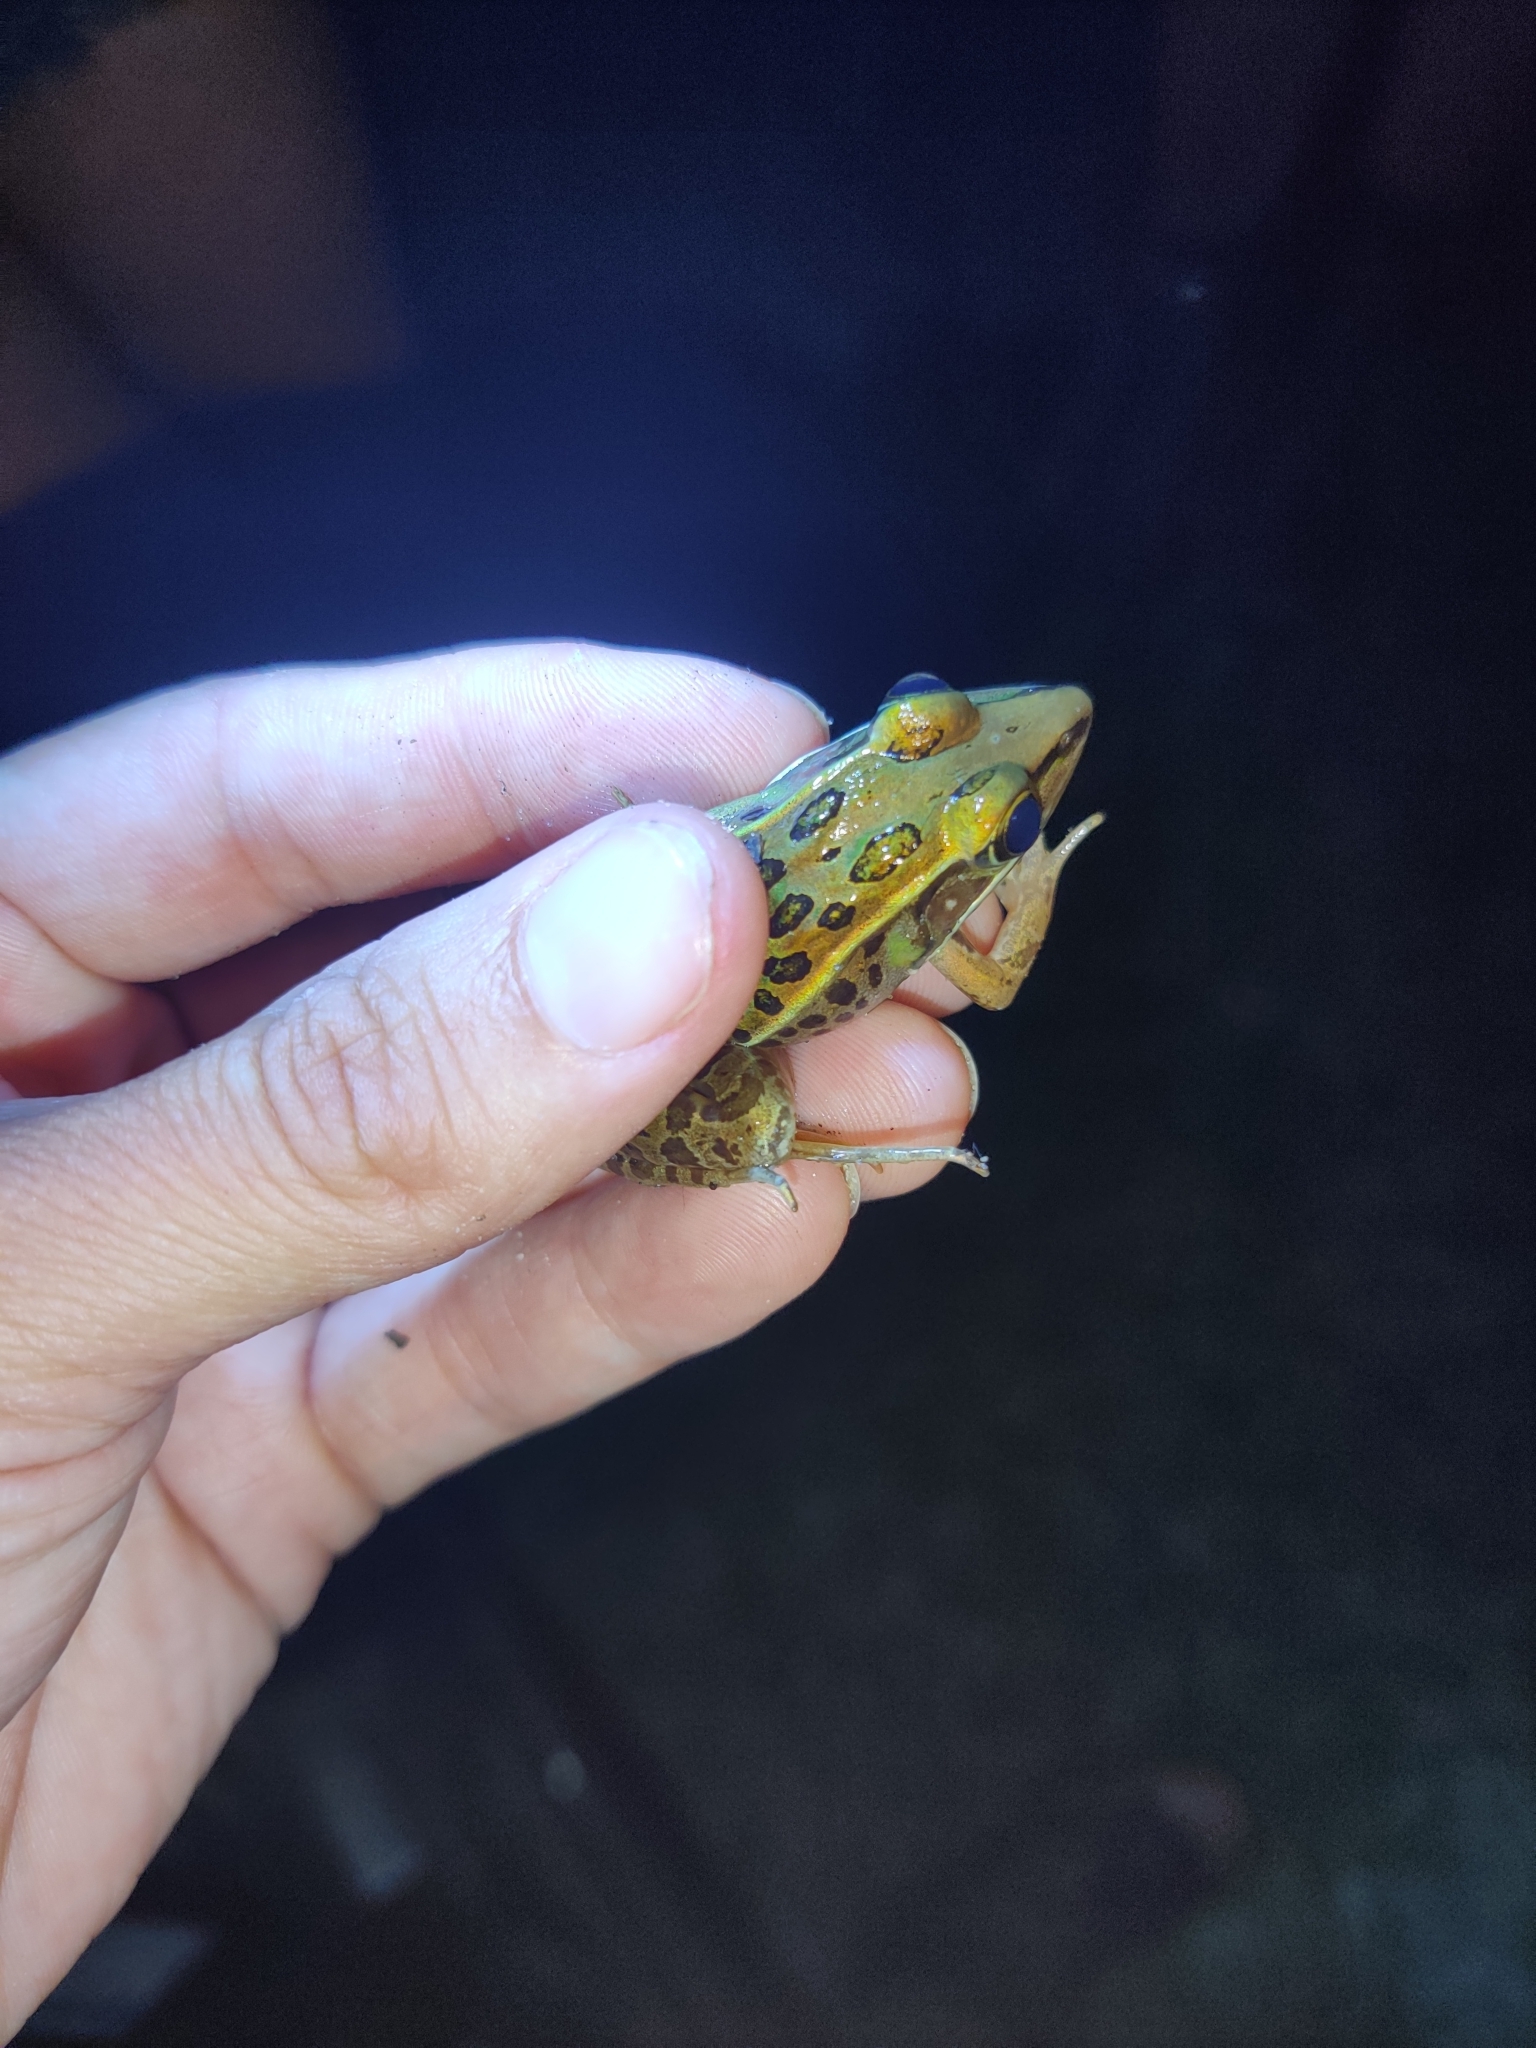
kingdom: Animalia
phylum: Chordata
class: Amphibia
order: Anura
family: Ranidae
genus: Lithobates
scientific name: Lithobates sphenocephalus
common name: Southern leopard frog
